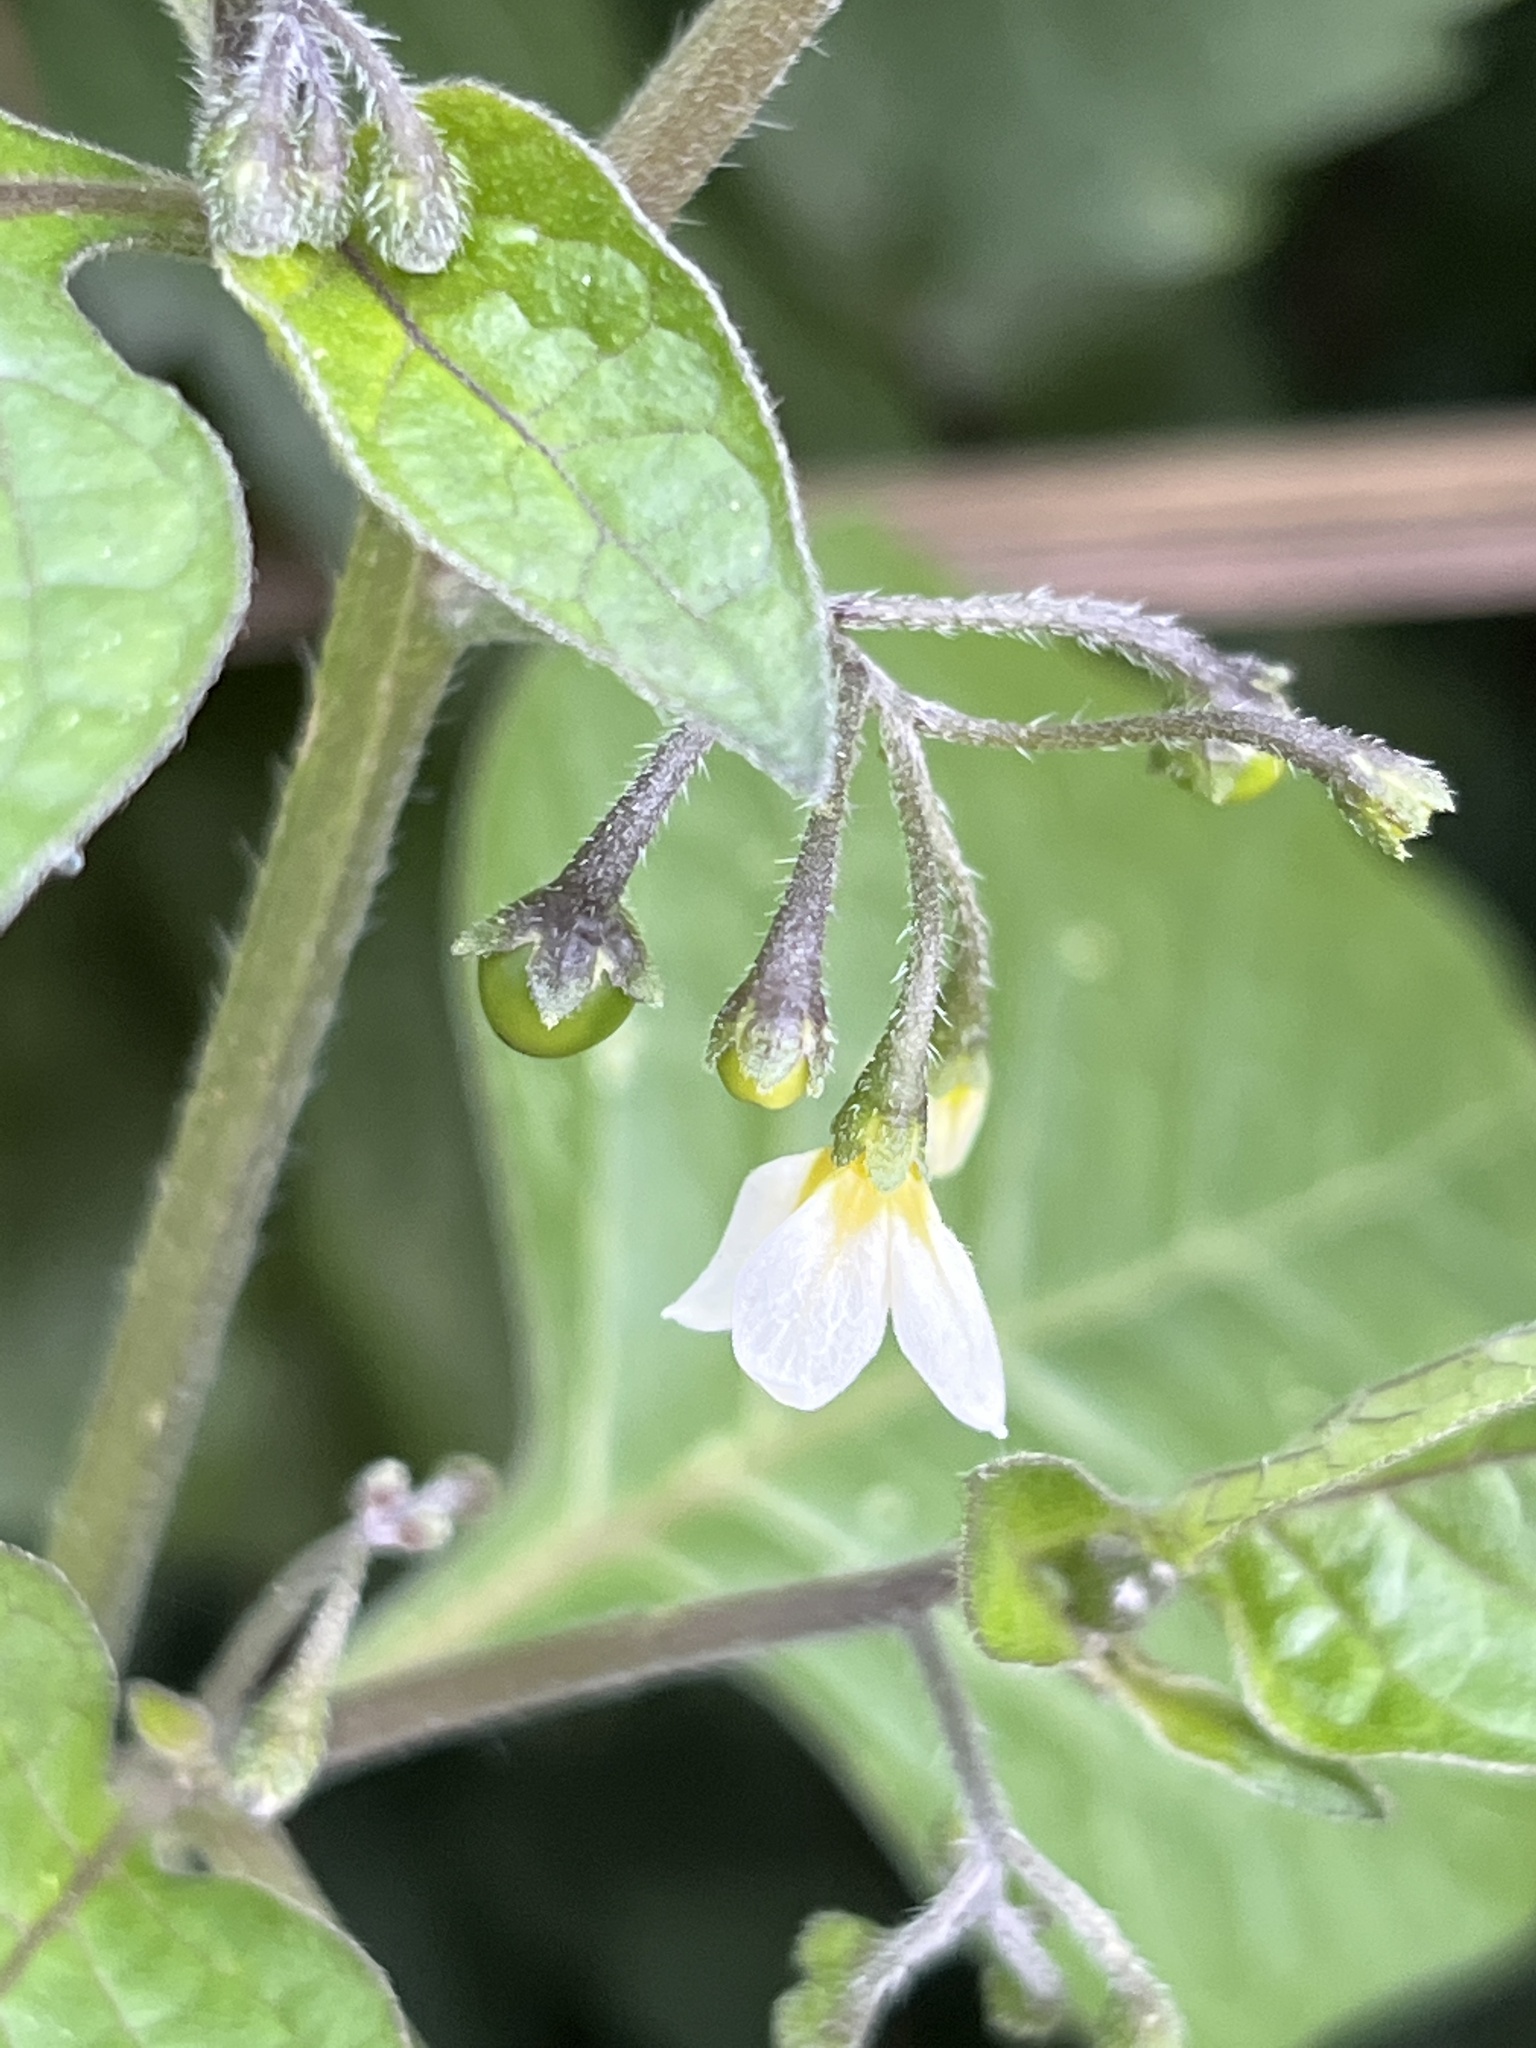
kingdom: Plantae
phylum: Tracheophyta
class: Magnoliopsida
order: Solanales
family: Solanaceae
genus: Solanum
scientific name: Solanum nigrum
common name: Black nightshade
